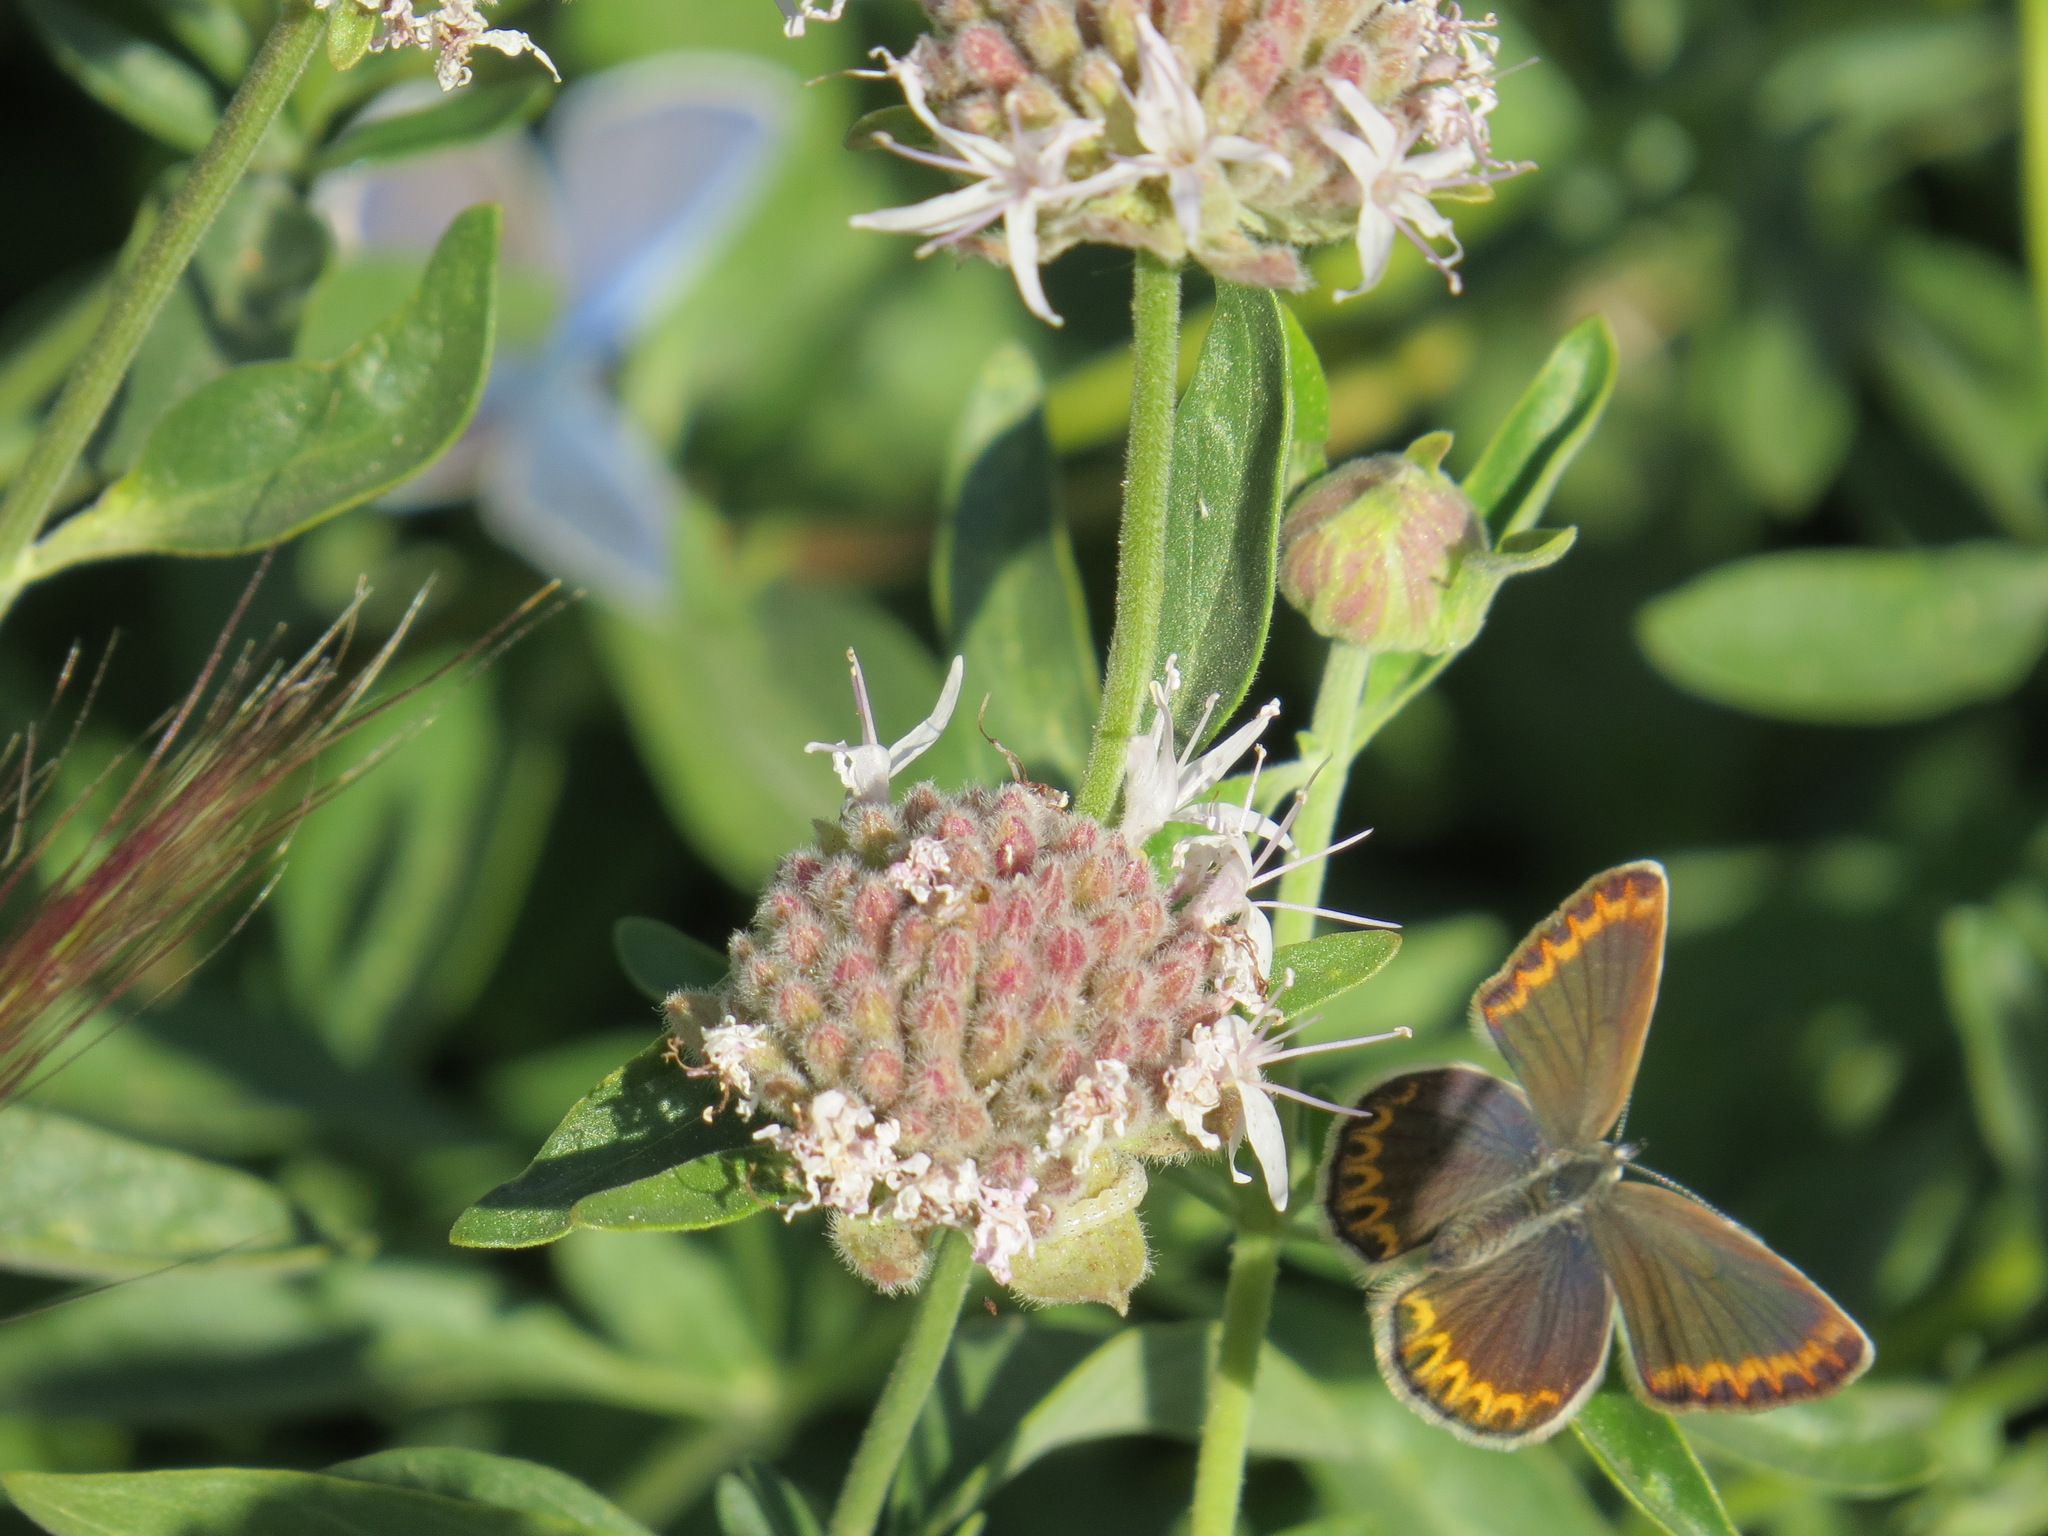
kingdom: Animalia
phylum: Arthropoda
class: Insecta
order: Lepidoptera
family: Lycaenidae
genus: Lycaeides
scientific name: Lycaeides anna
